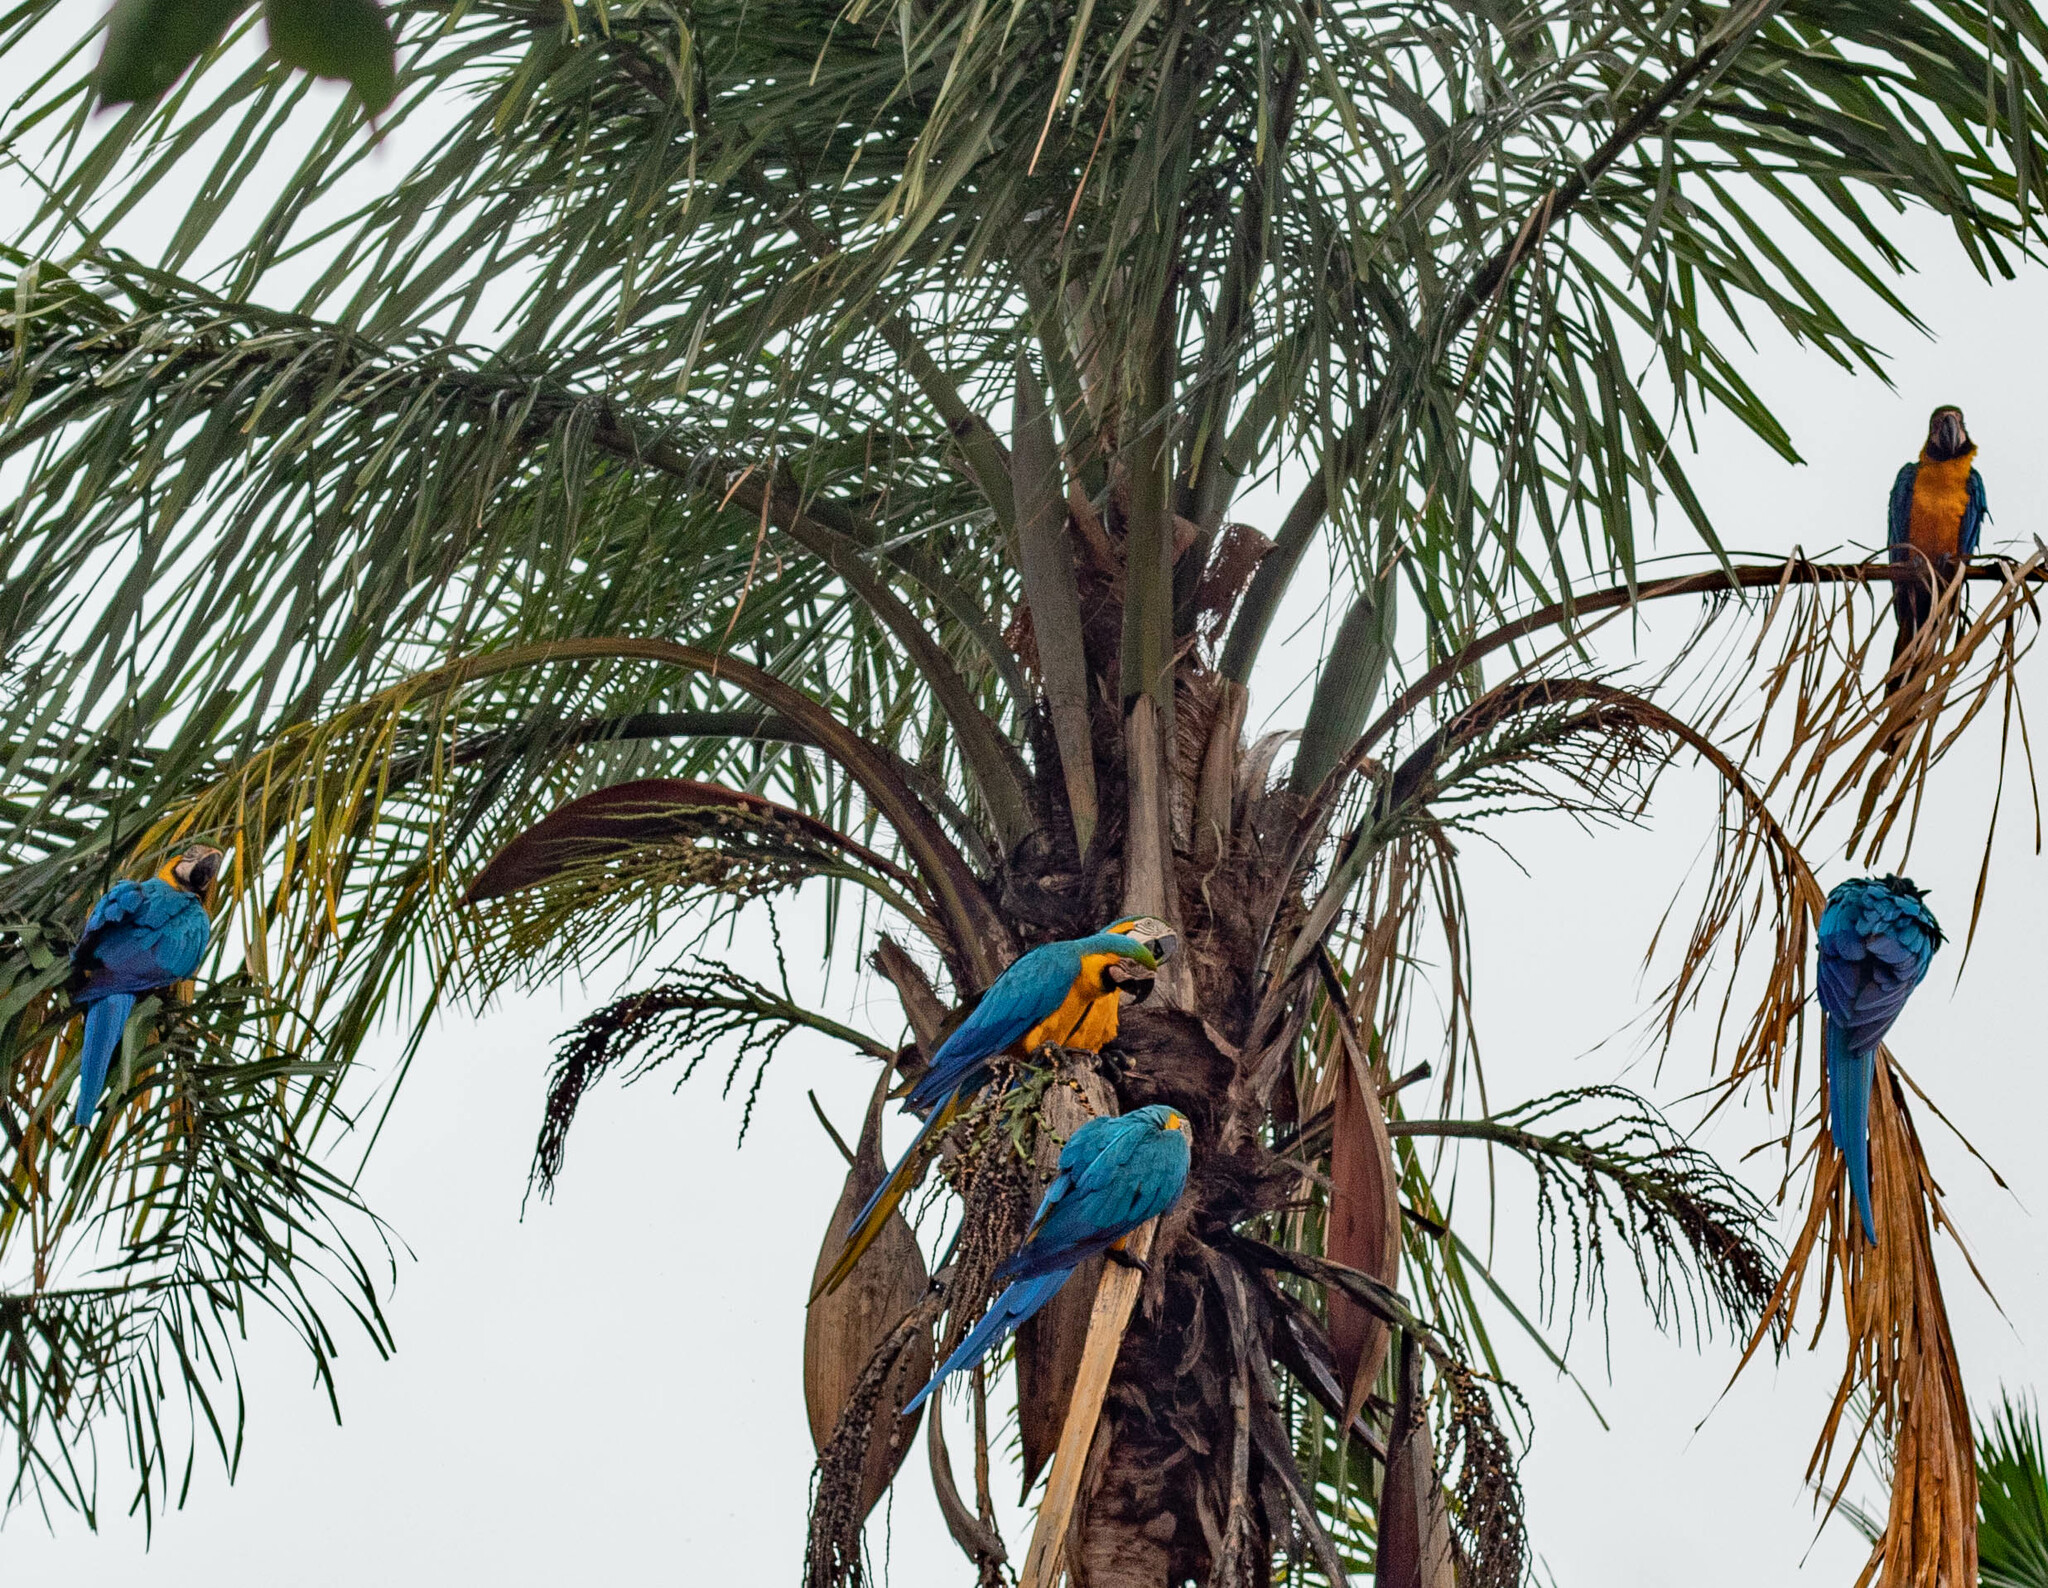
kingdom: Animalia
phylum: Chordata
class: Aves
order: Psittaciformes
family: Psittacidae
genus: Ara
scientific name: Ara ararauna
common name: Blue-and-yellow macaw
